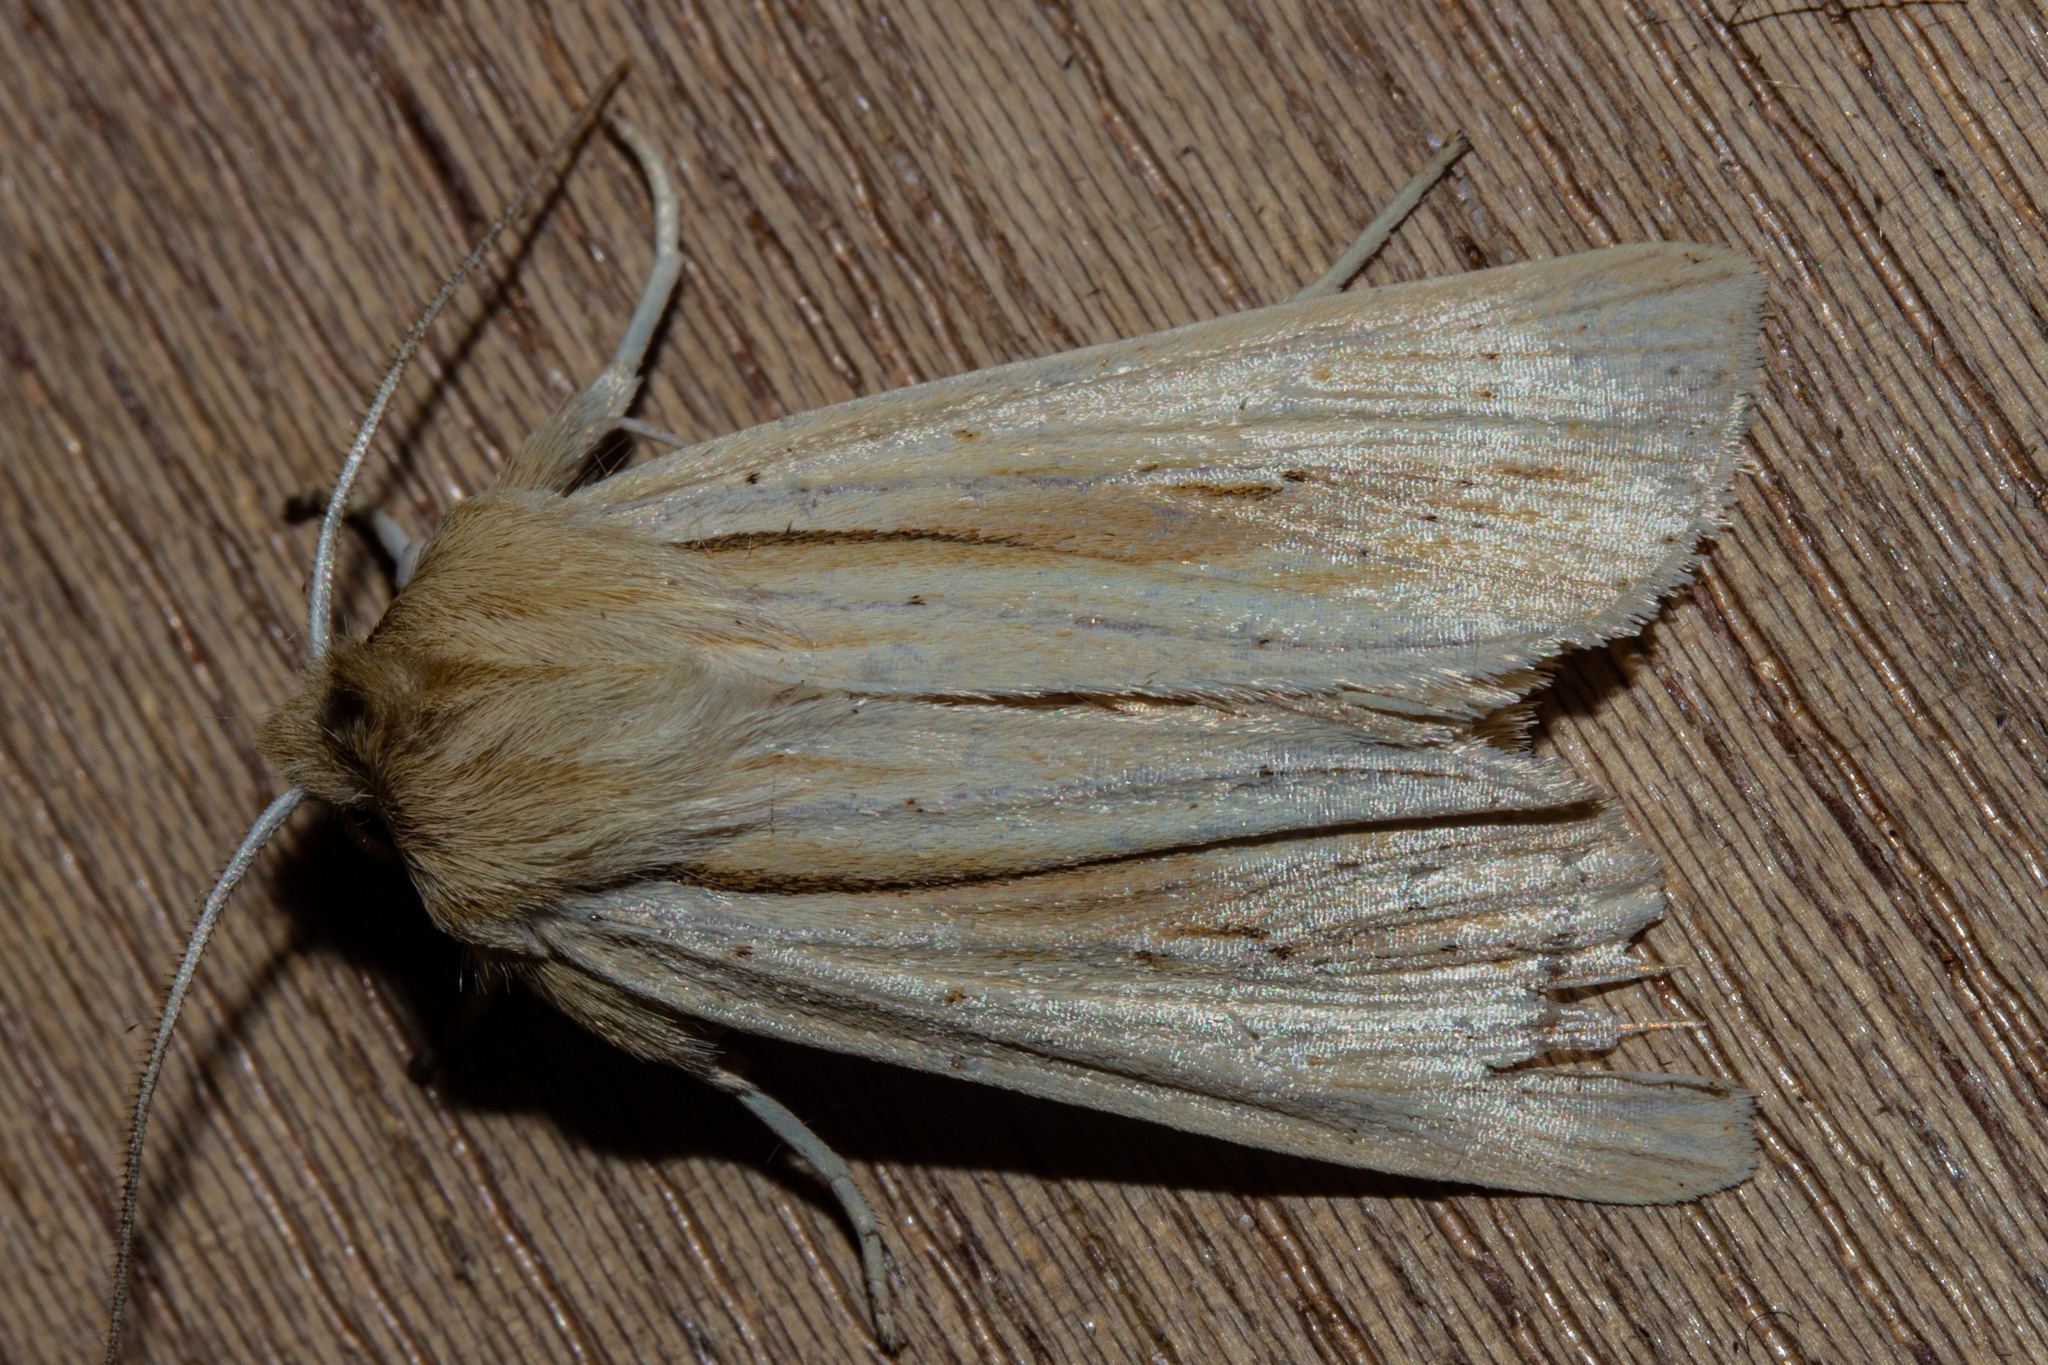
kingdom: Animalia
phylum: Arthropoda
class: Insecta
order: Lepidoptera
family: Noctuidae
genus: Ichneutica
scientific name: Ichneutica semivittata
